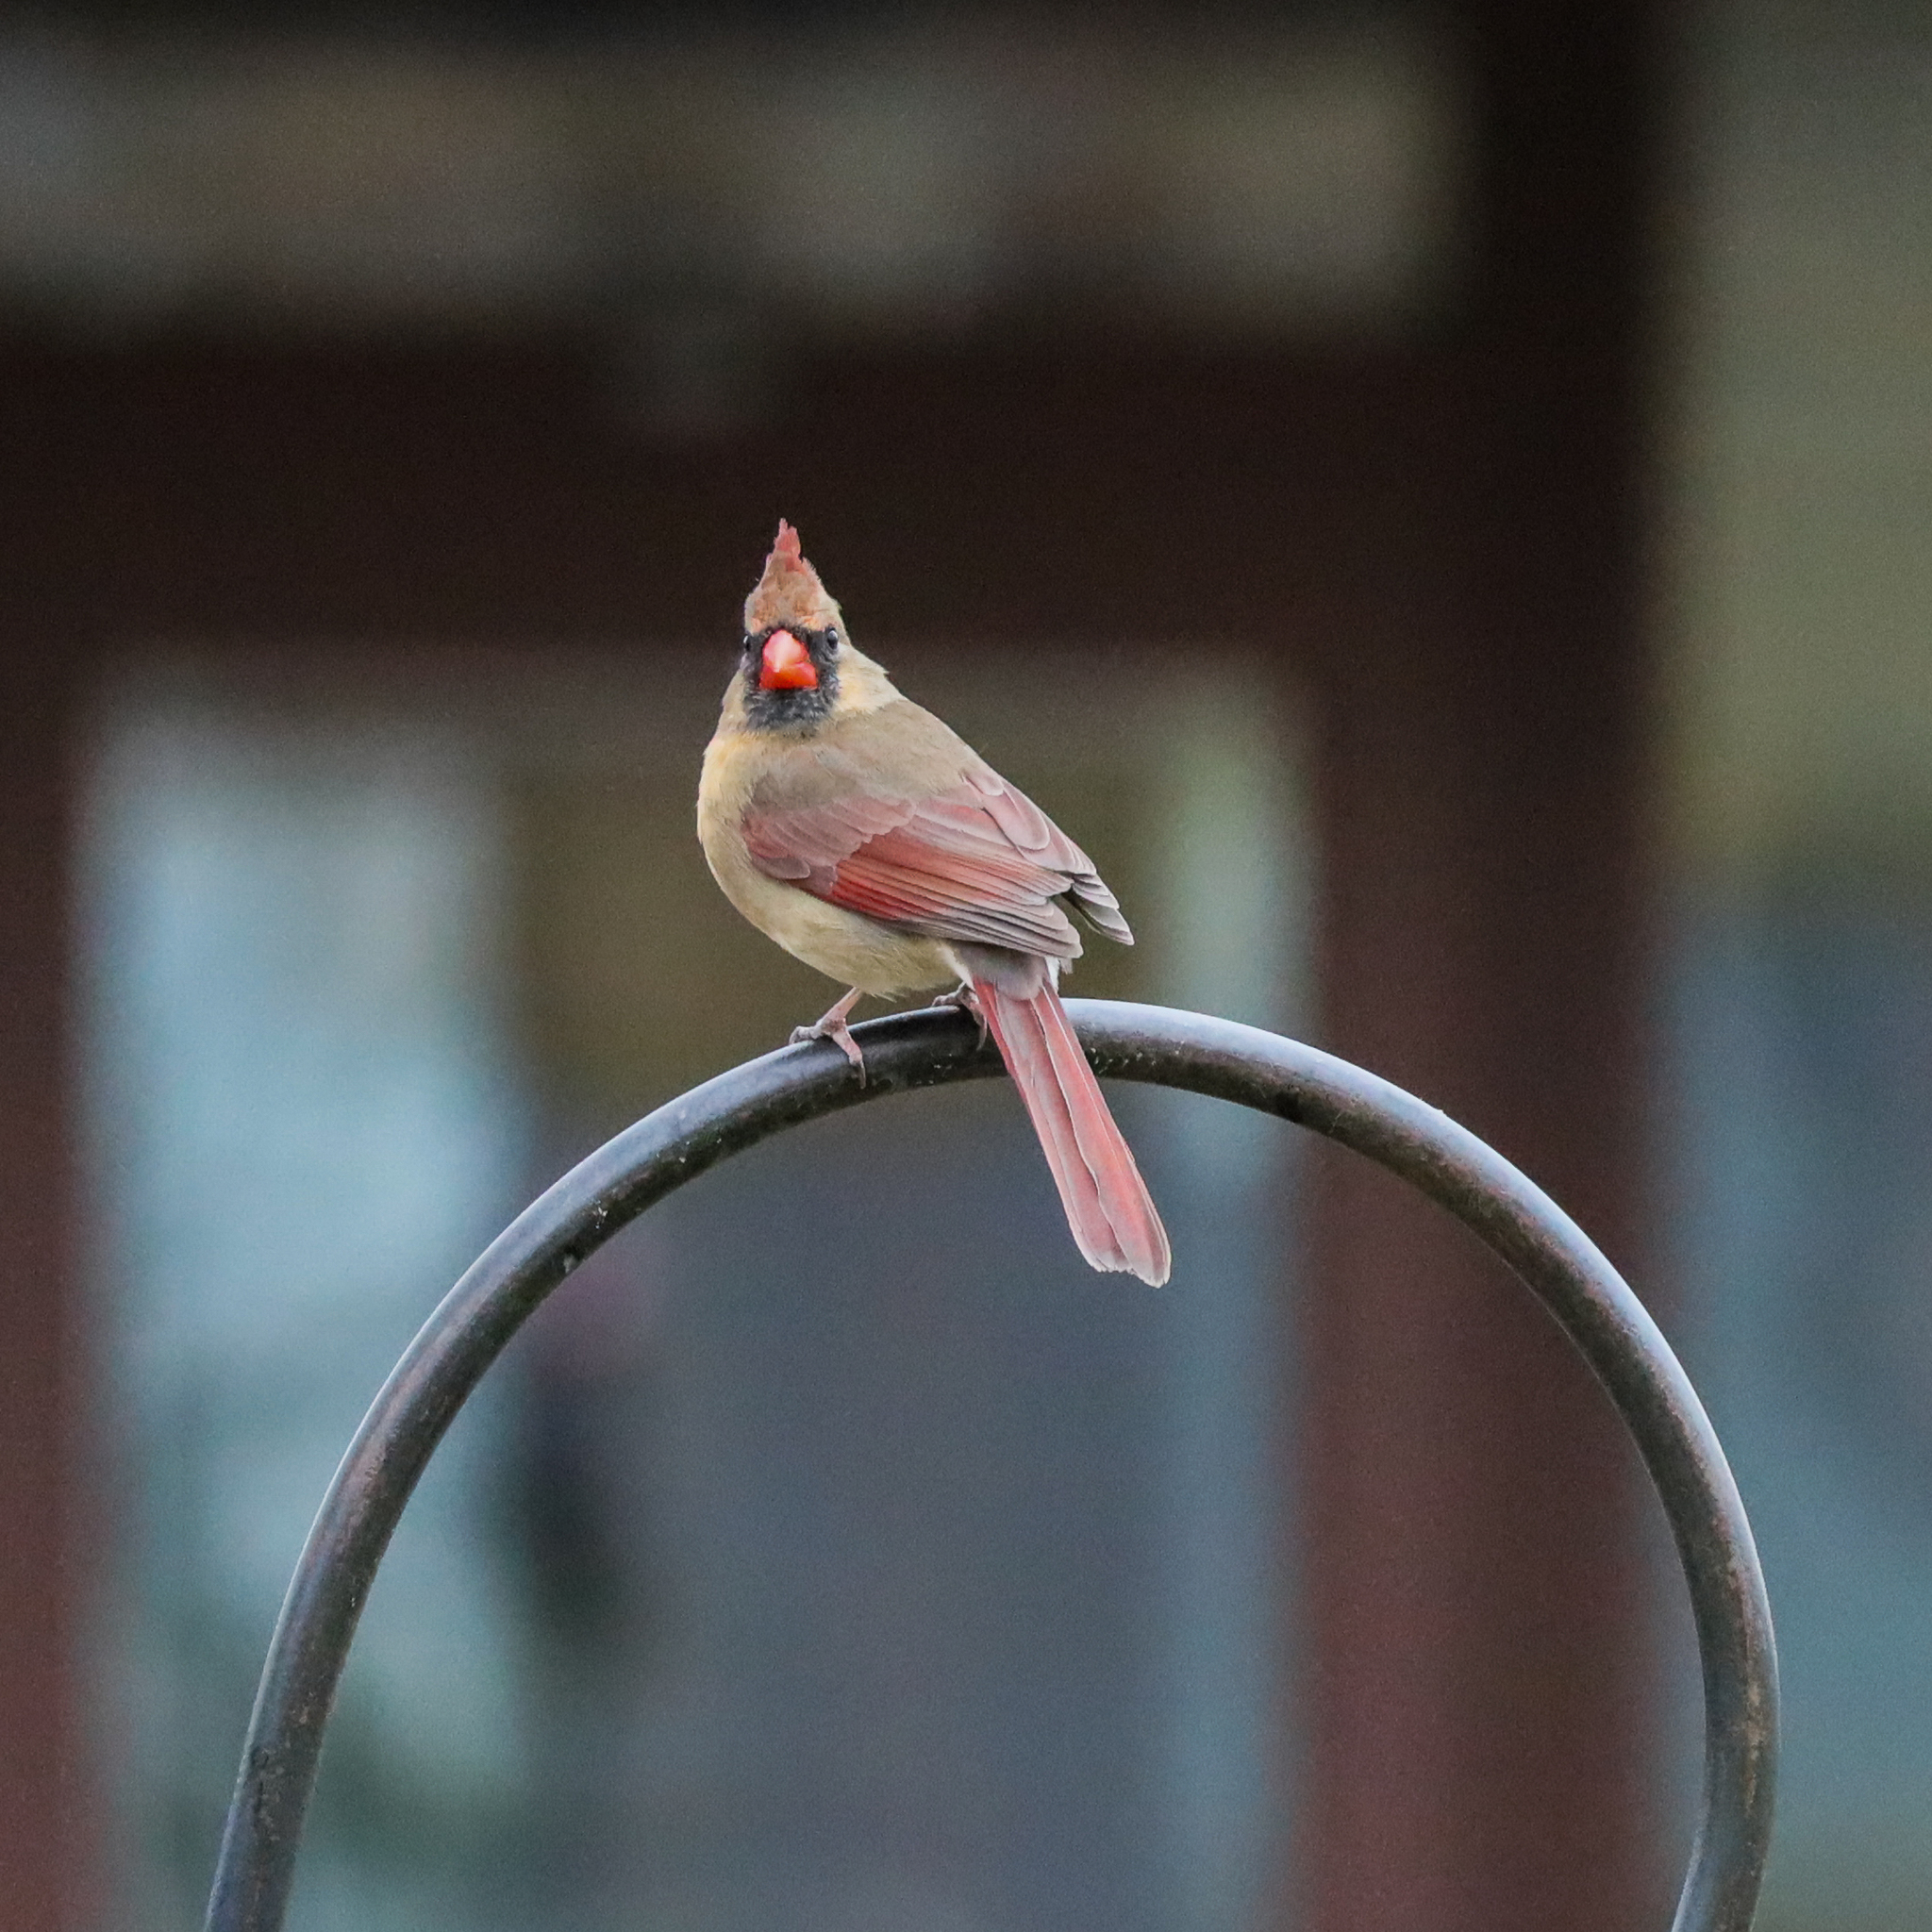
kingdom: Animalia
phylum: Chordata
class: Aves
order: Passeriformes
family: Cardinalidae
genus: Cardinalis
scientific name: Cardinalis cardinalis
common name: Northern cardinal
